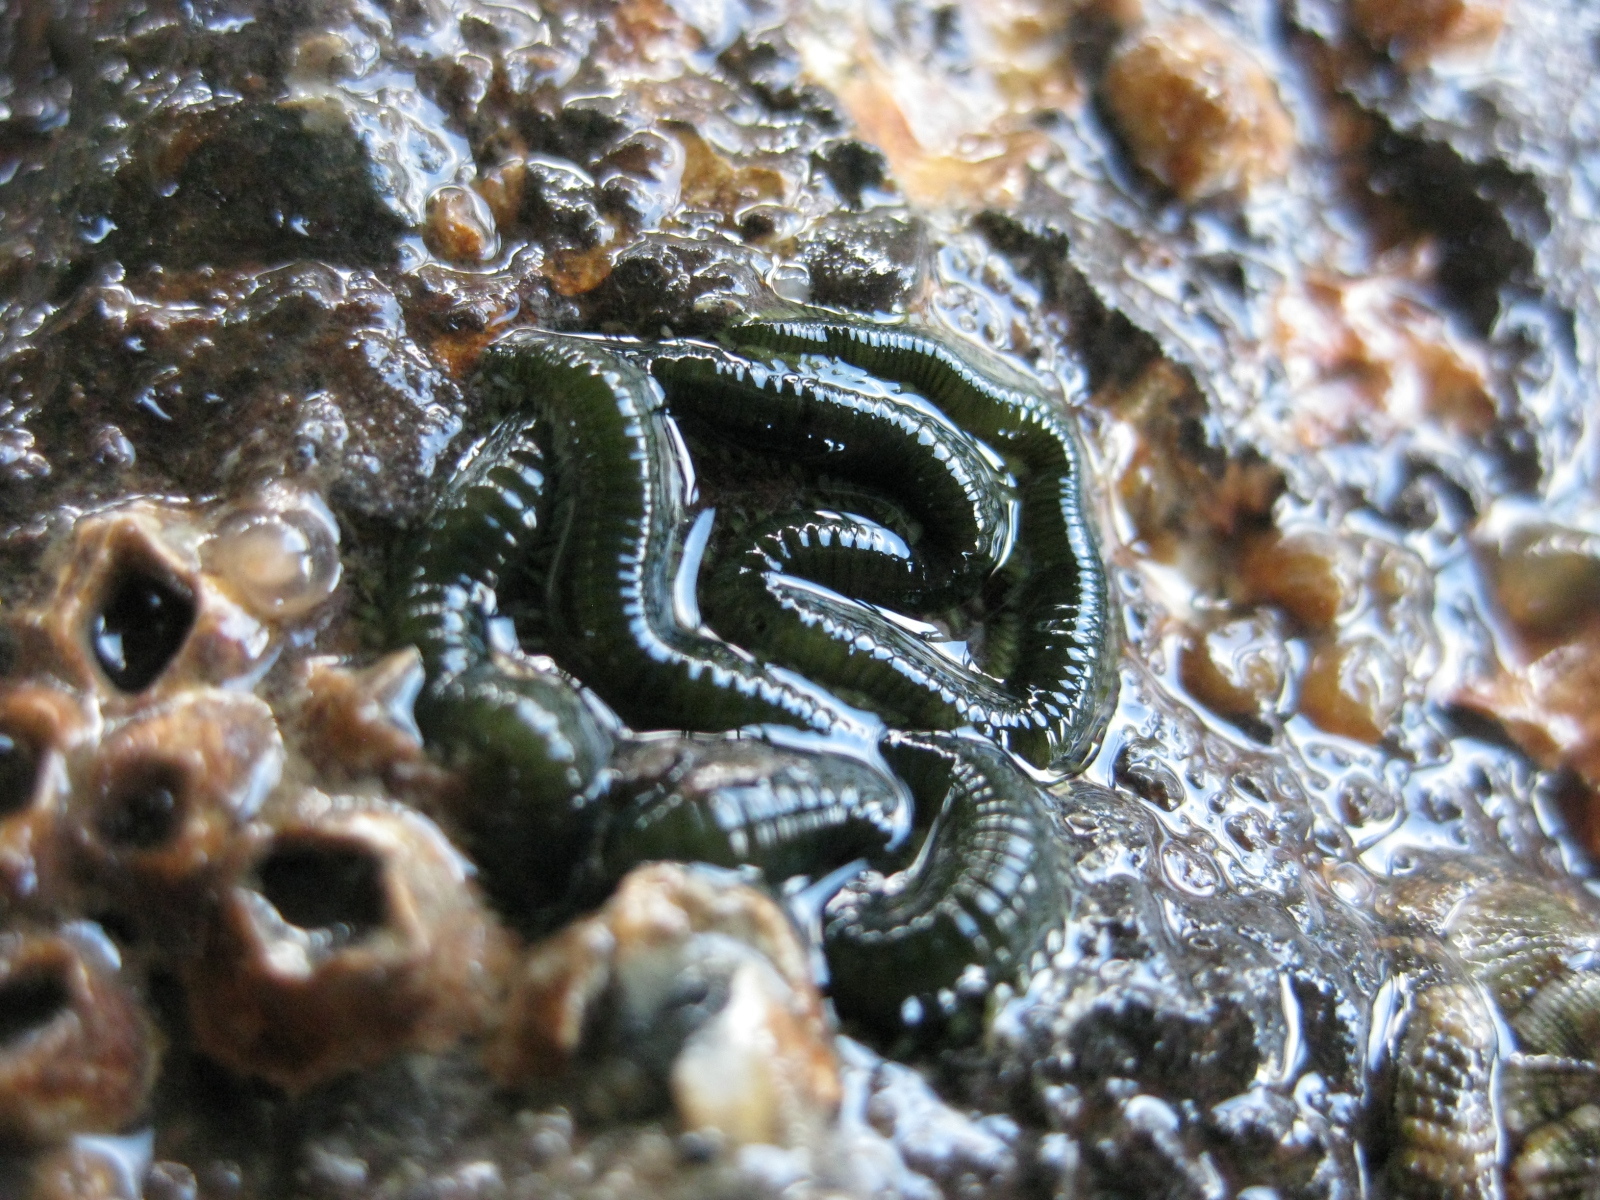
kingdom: Animalia
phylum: Annelida
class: Polychaeta
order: Phyllodocida
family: Phyllodocidae
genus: Eulalia
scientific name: Eulalia microphylla
